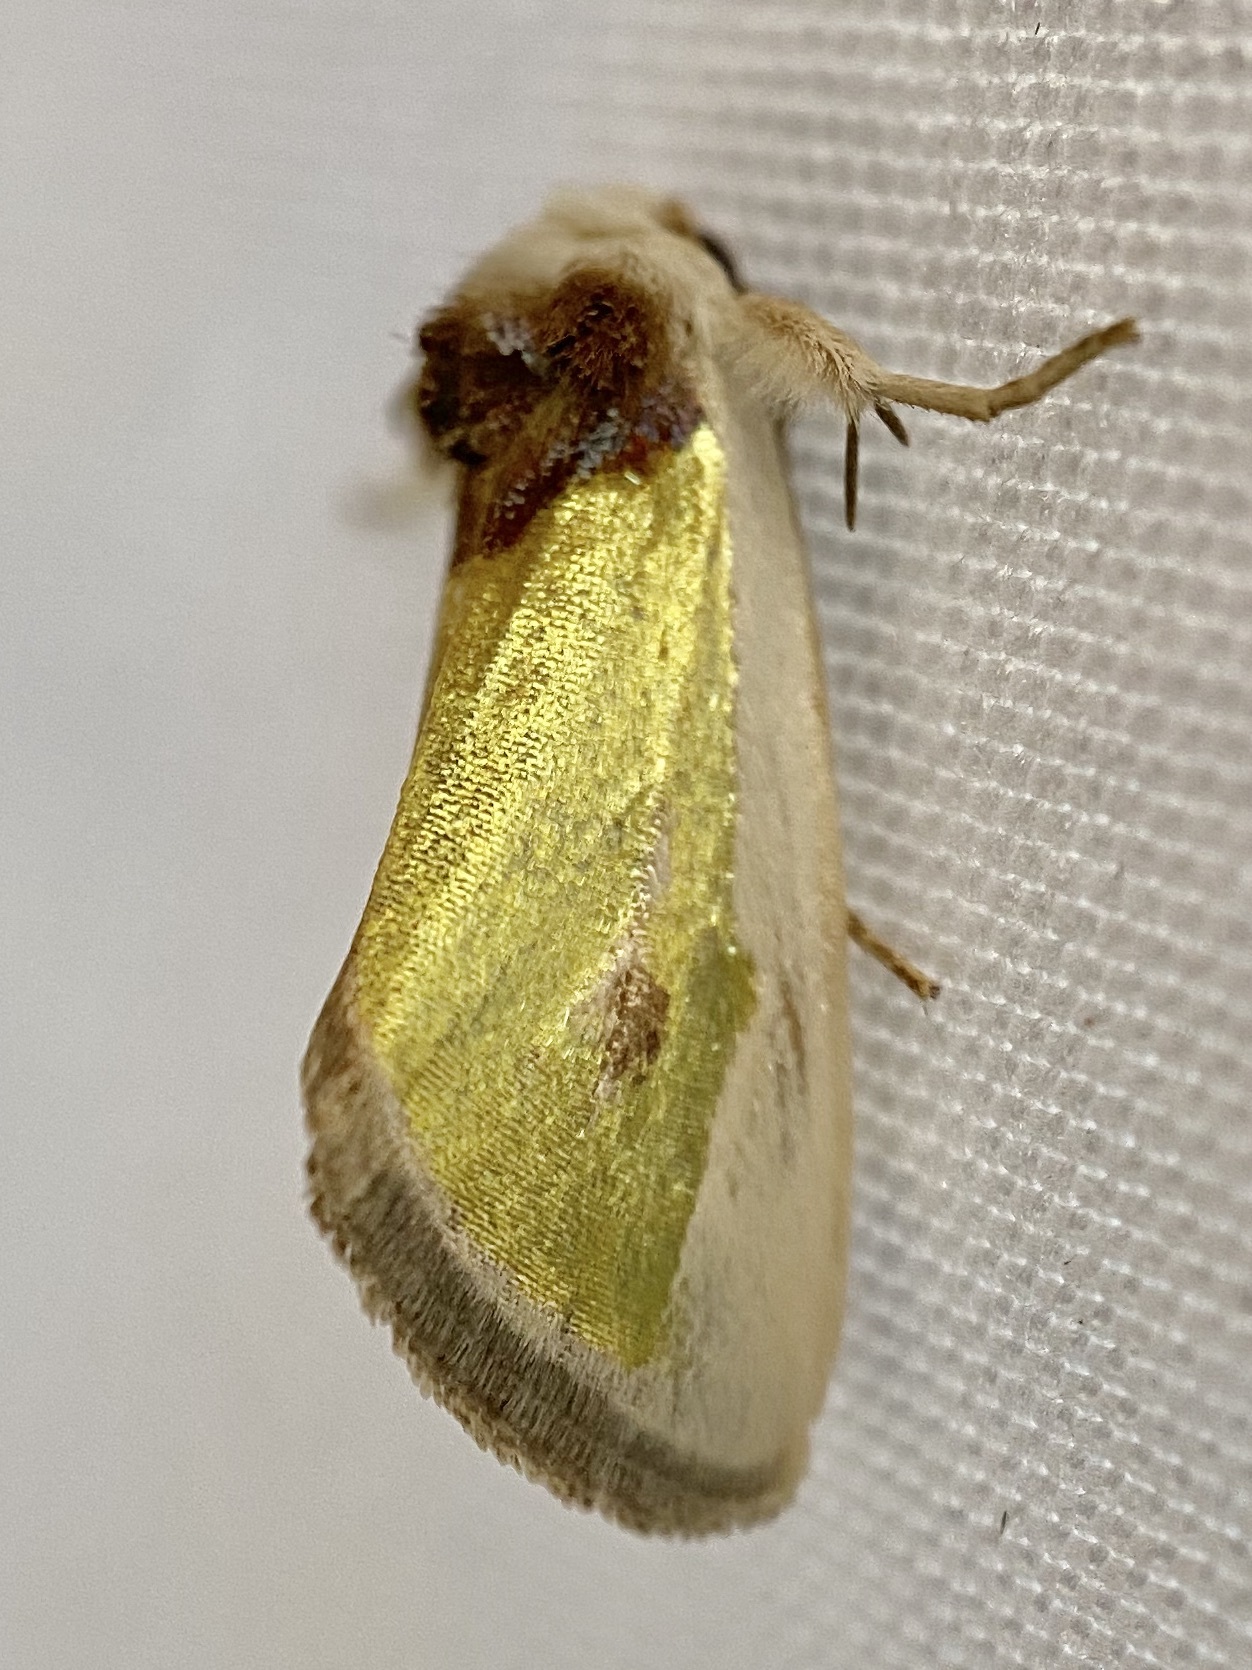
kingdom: Animalia
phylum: Arthropoda
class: Insecta
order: Lepidoptera
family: Noctuidae
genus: Neumoegenia
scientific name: Neumoegenia poetica
